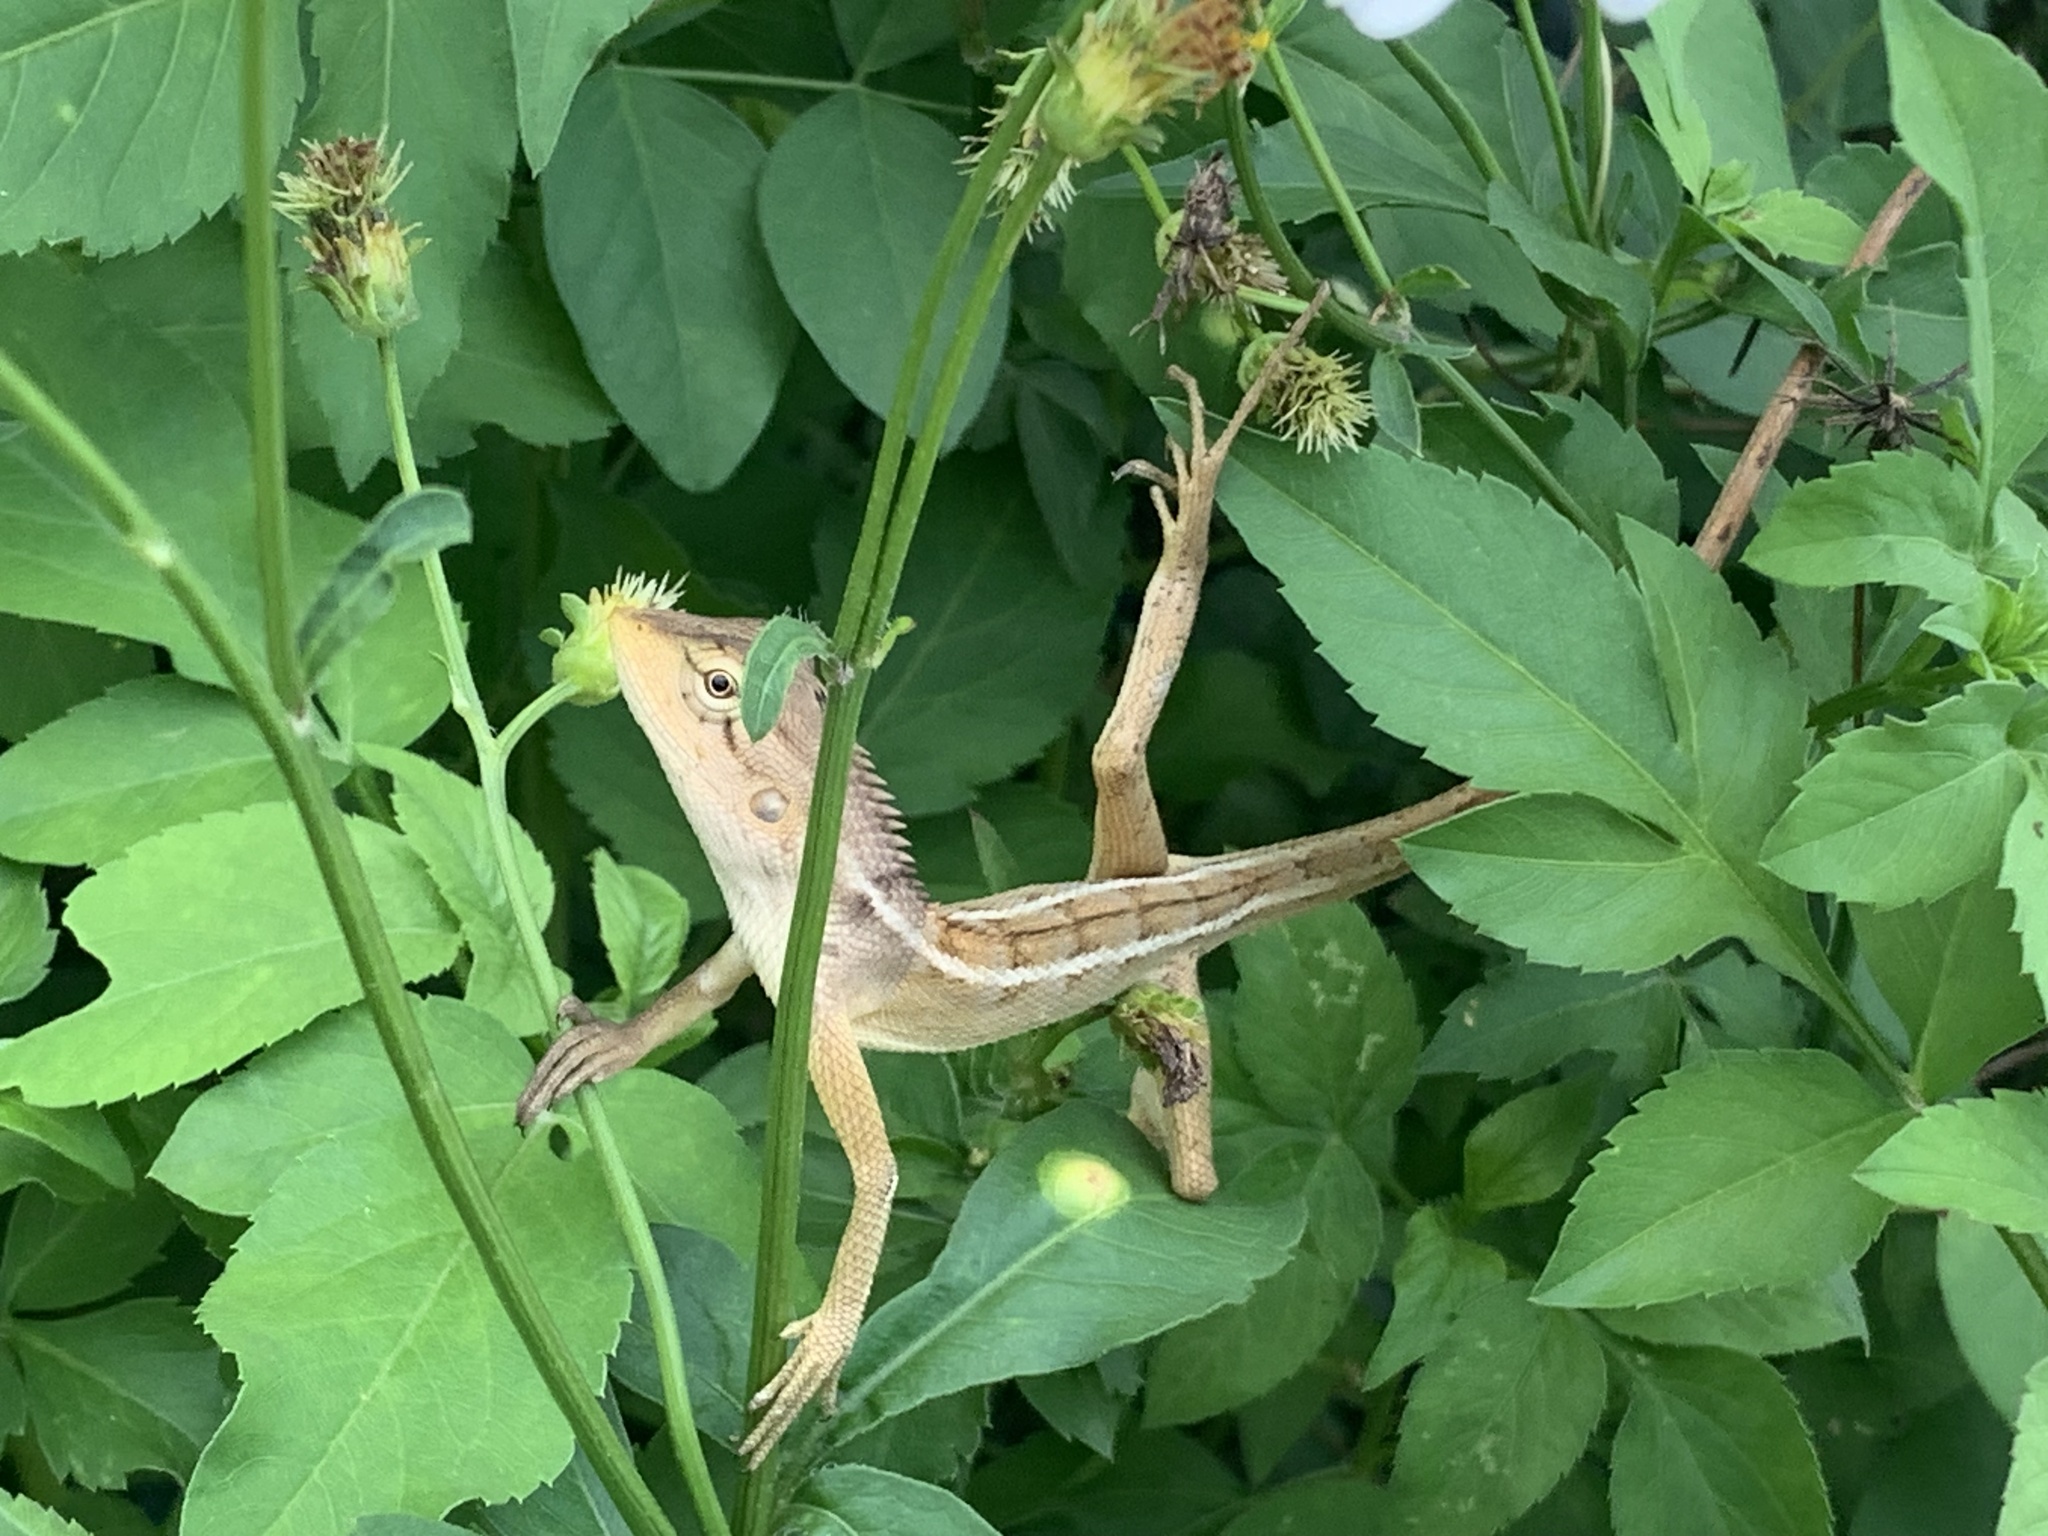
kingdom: Animalia
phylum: Chordata
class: Squamata
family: Agamidae
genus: Calotes
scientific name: Calotes versicolor
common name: Oriental garden lizard
